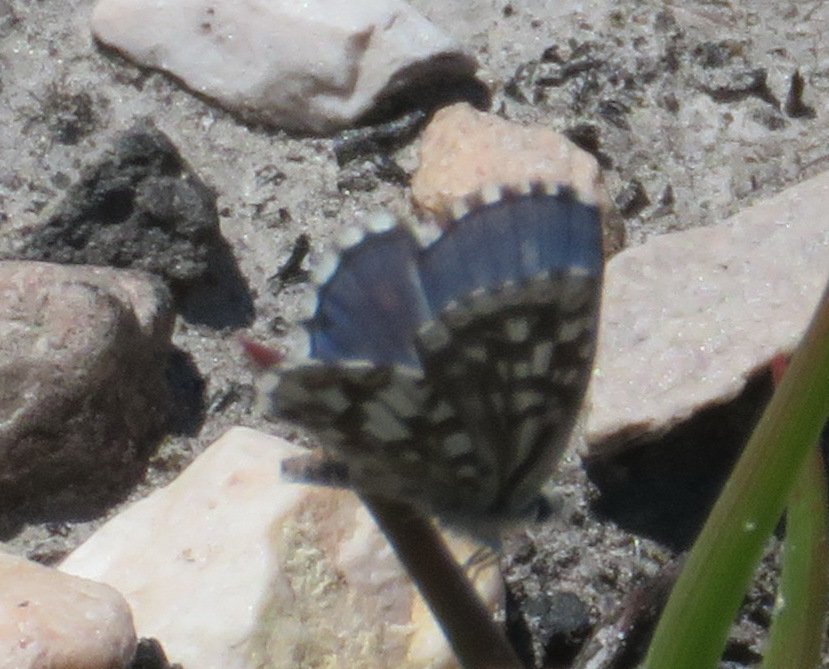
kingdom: Animalia
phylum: Arthropoda
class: Insecta
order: Lepidoptera
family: Lycaenidae
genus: Tarucus
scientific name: Tarucus thespis
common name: Vivid dotted blue
